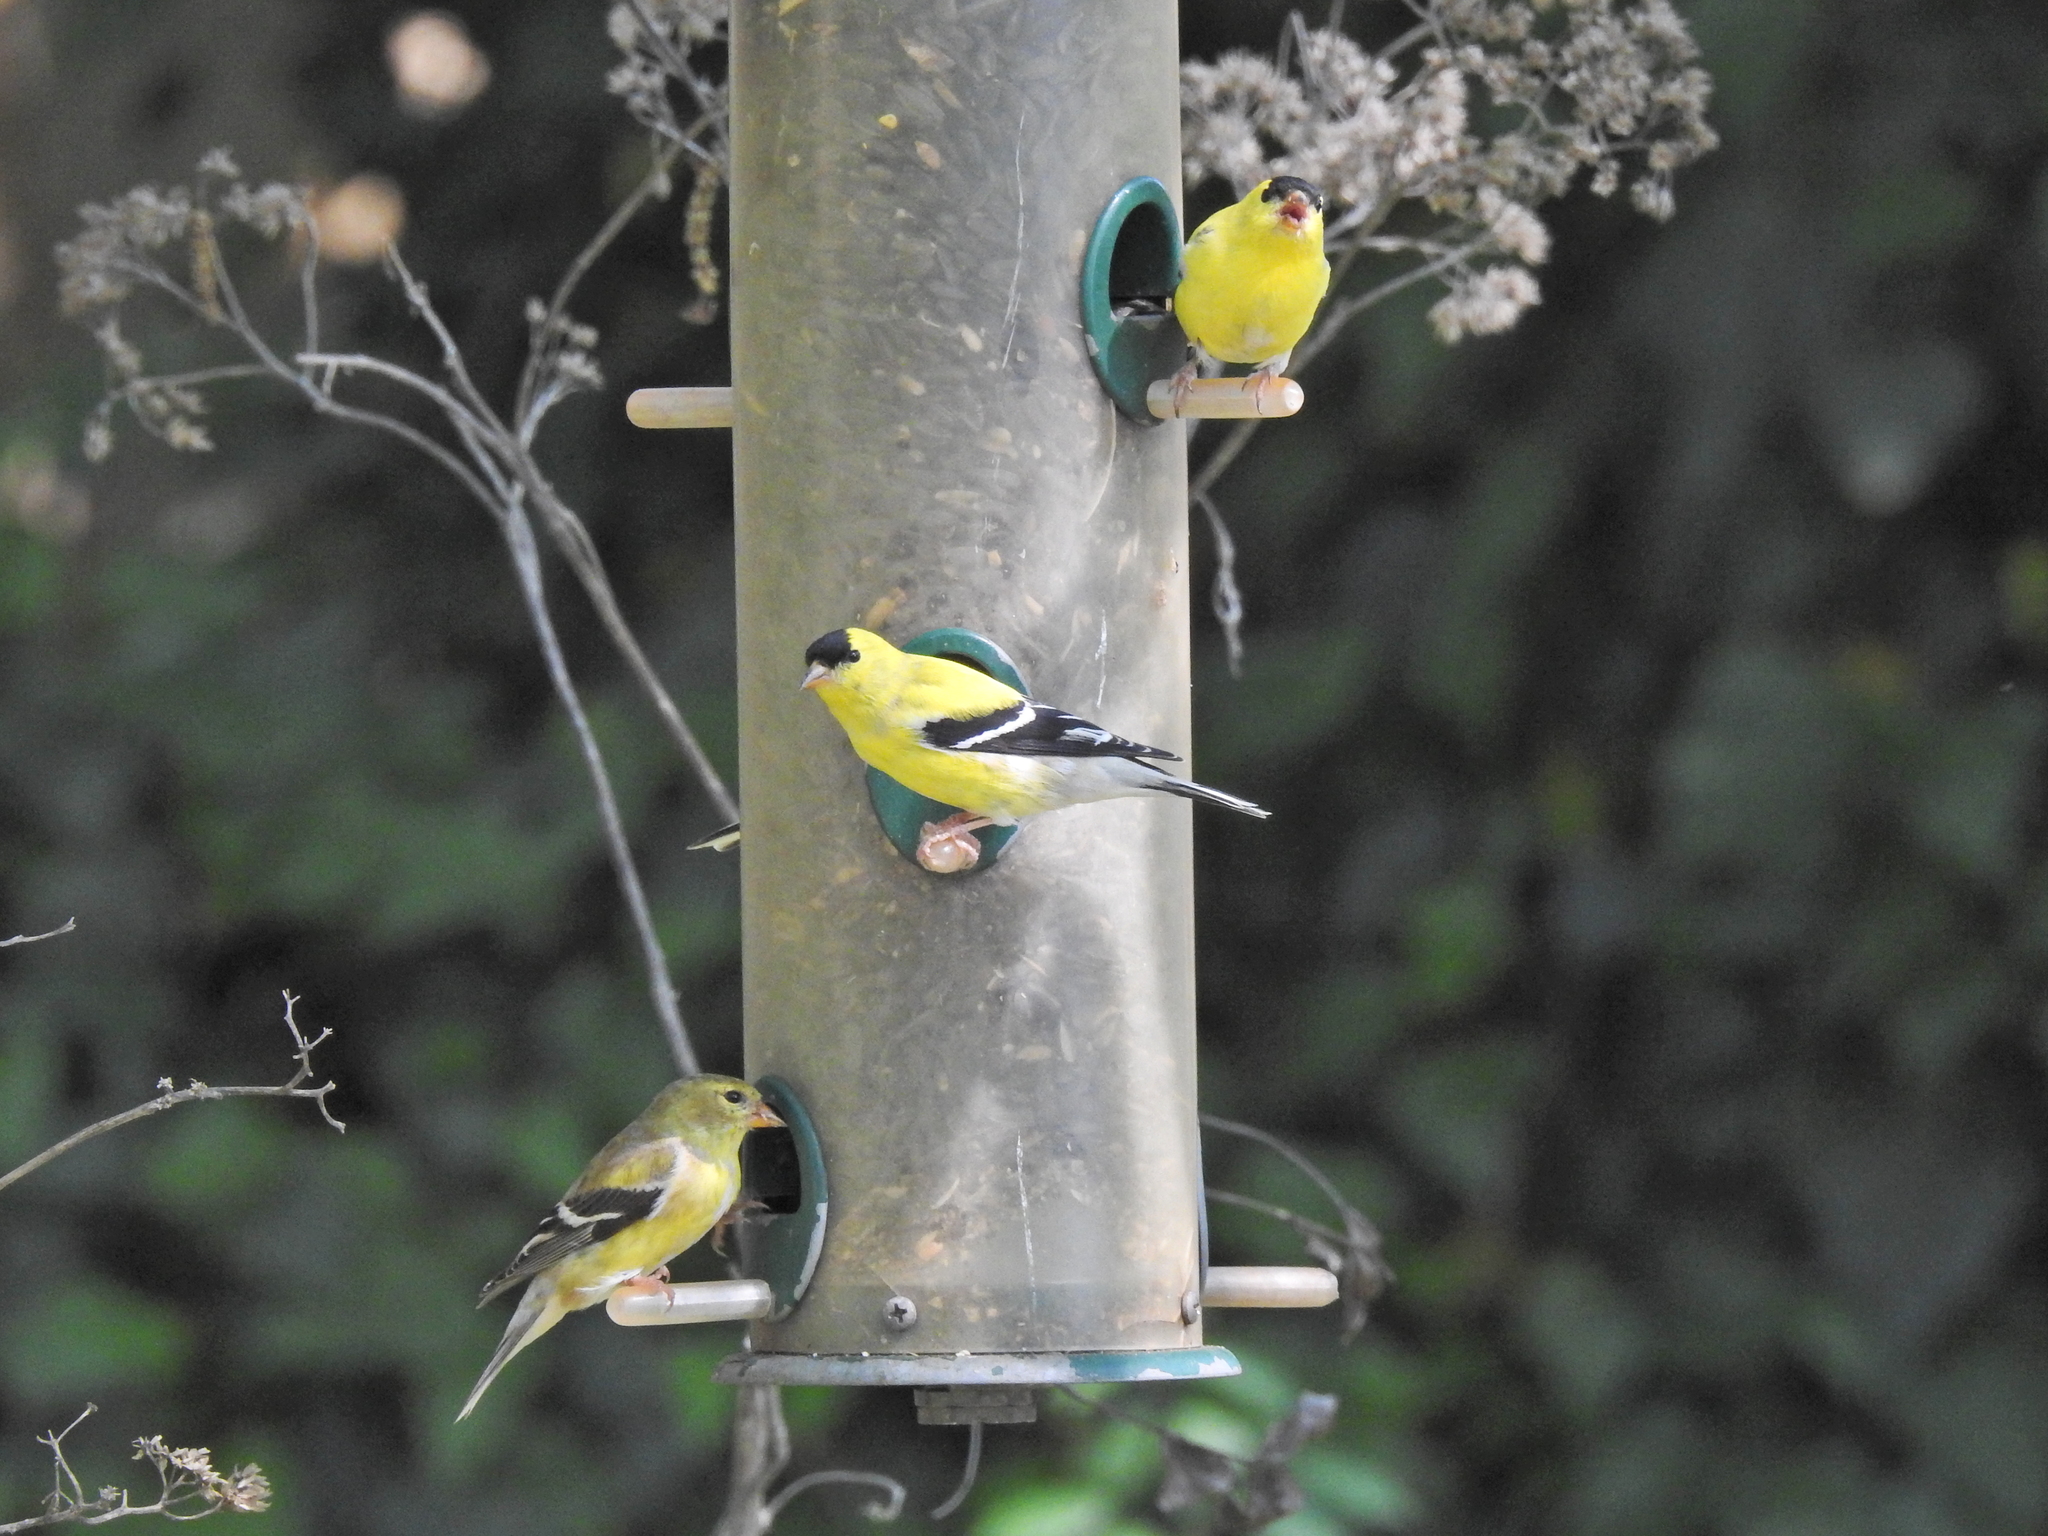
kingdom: Animalia
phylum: Chordata
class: Aves
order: Passeriformes
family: Fringillidae
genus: Spinus
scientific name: Spinus tristis
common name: American goldfinch
